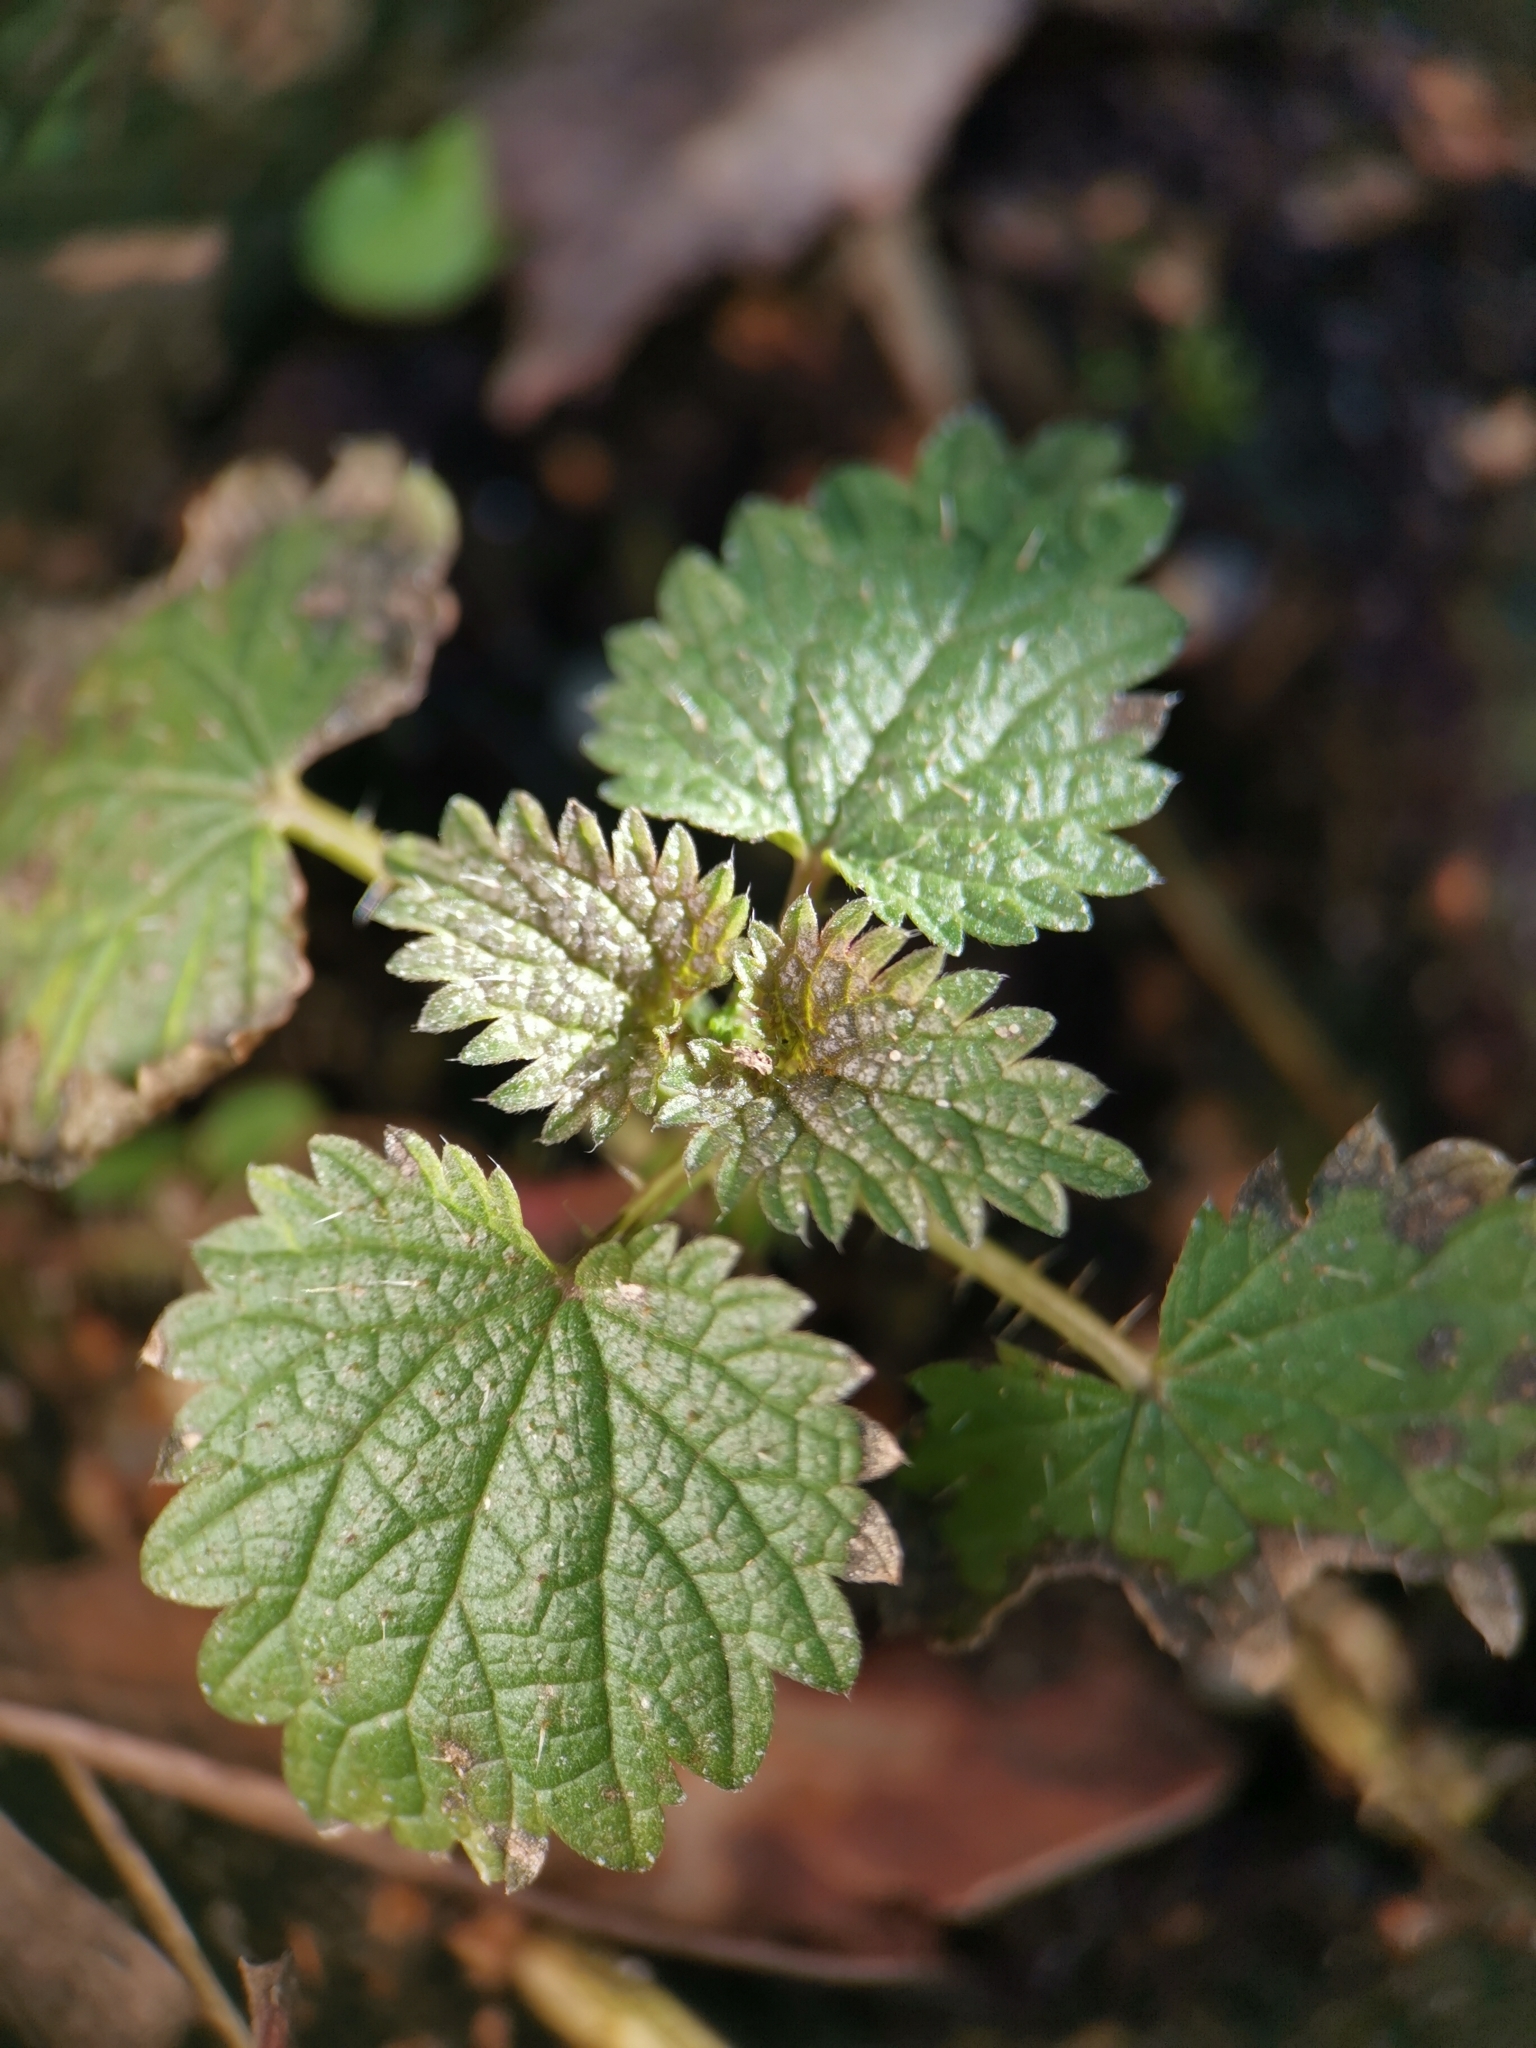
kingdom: Plantae
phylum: Tracheophyta
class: Magnoliopsida
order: Rosales
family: Urticaceae
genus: Urtica
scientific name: Urtica dioica
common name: Common nettle
